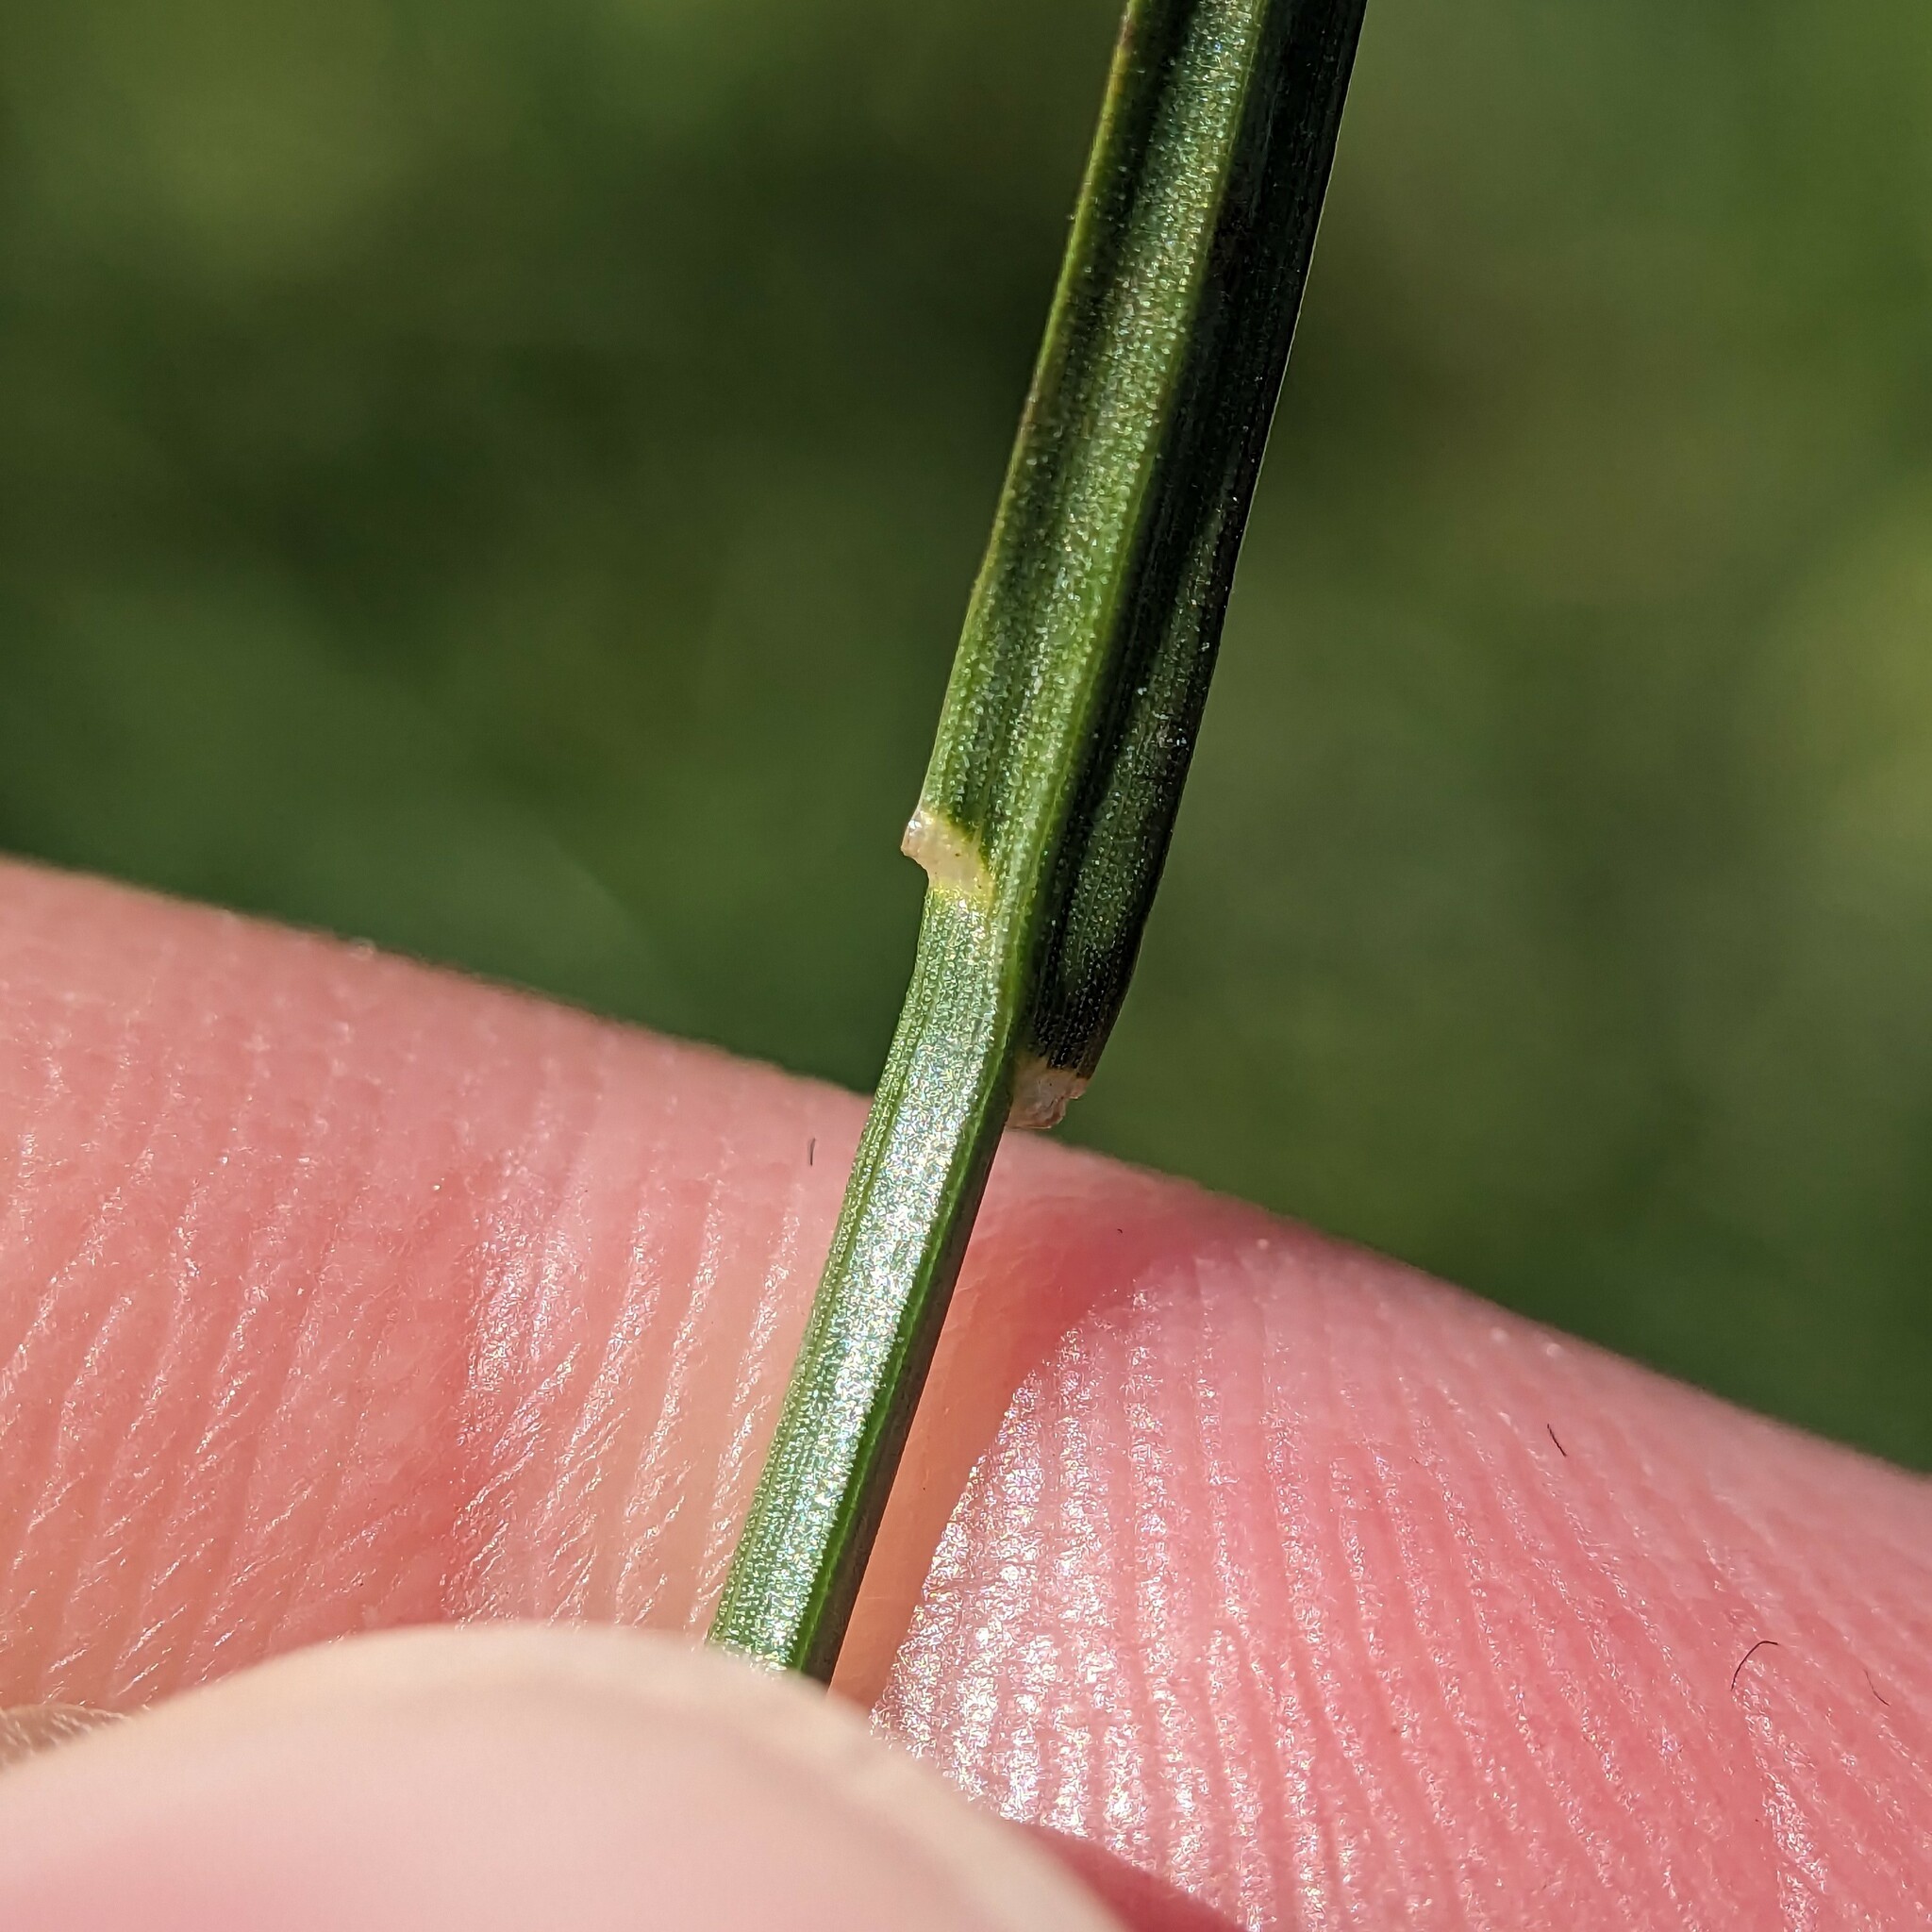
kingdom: Plantae
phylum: Tracheophyta
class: Liliopsida
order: Poales
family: Poaceae
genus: Lolium
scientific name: Lolium perenne
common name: Perennial ryegrass
